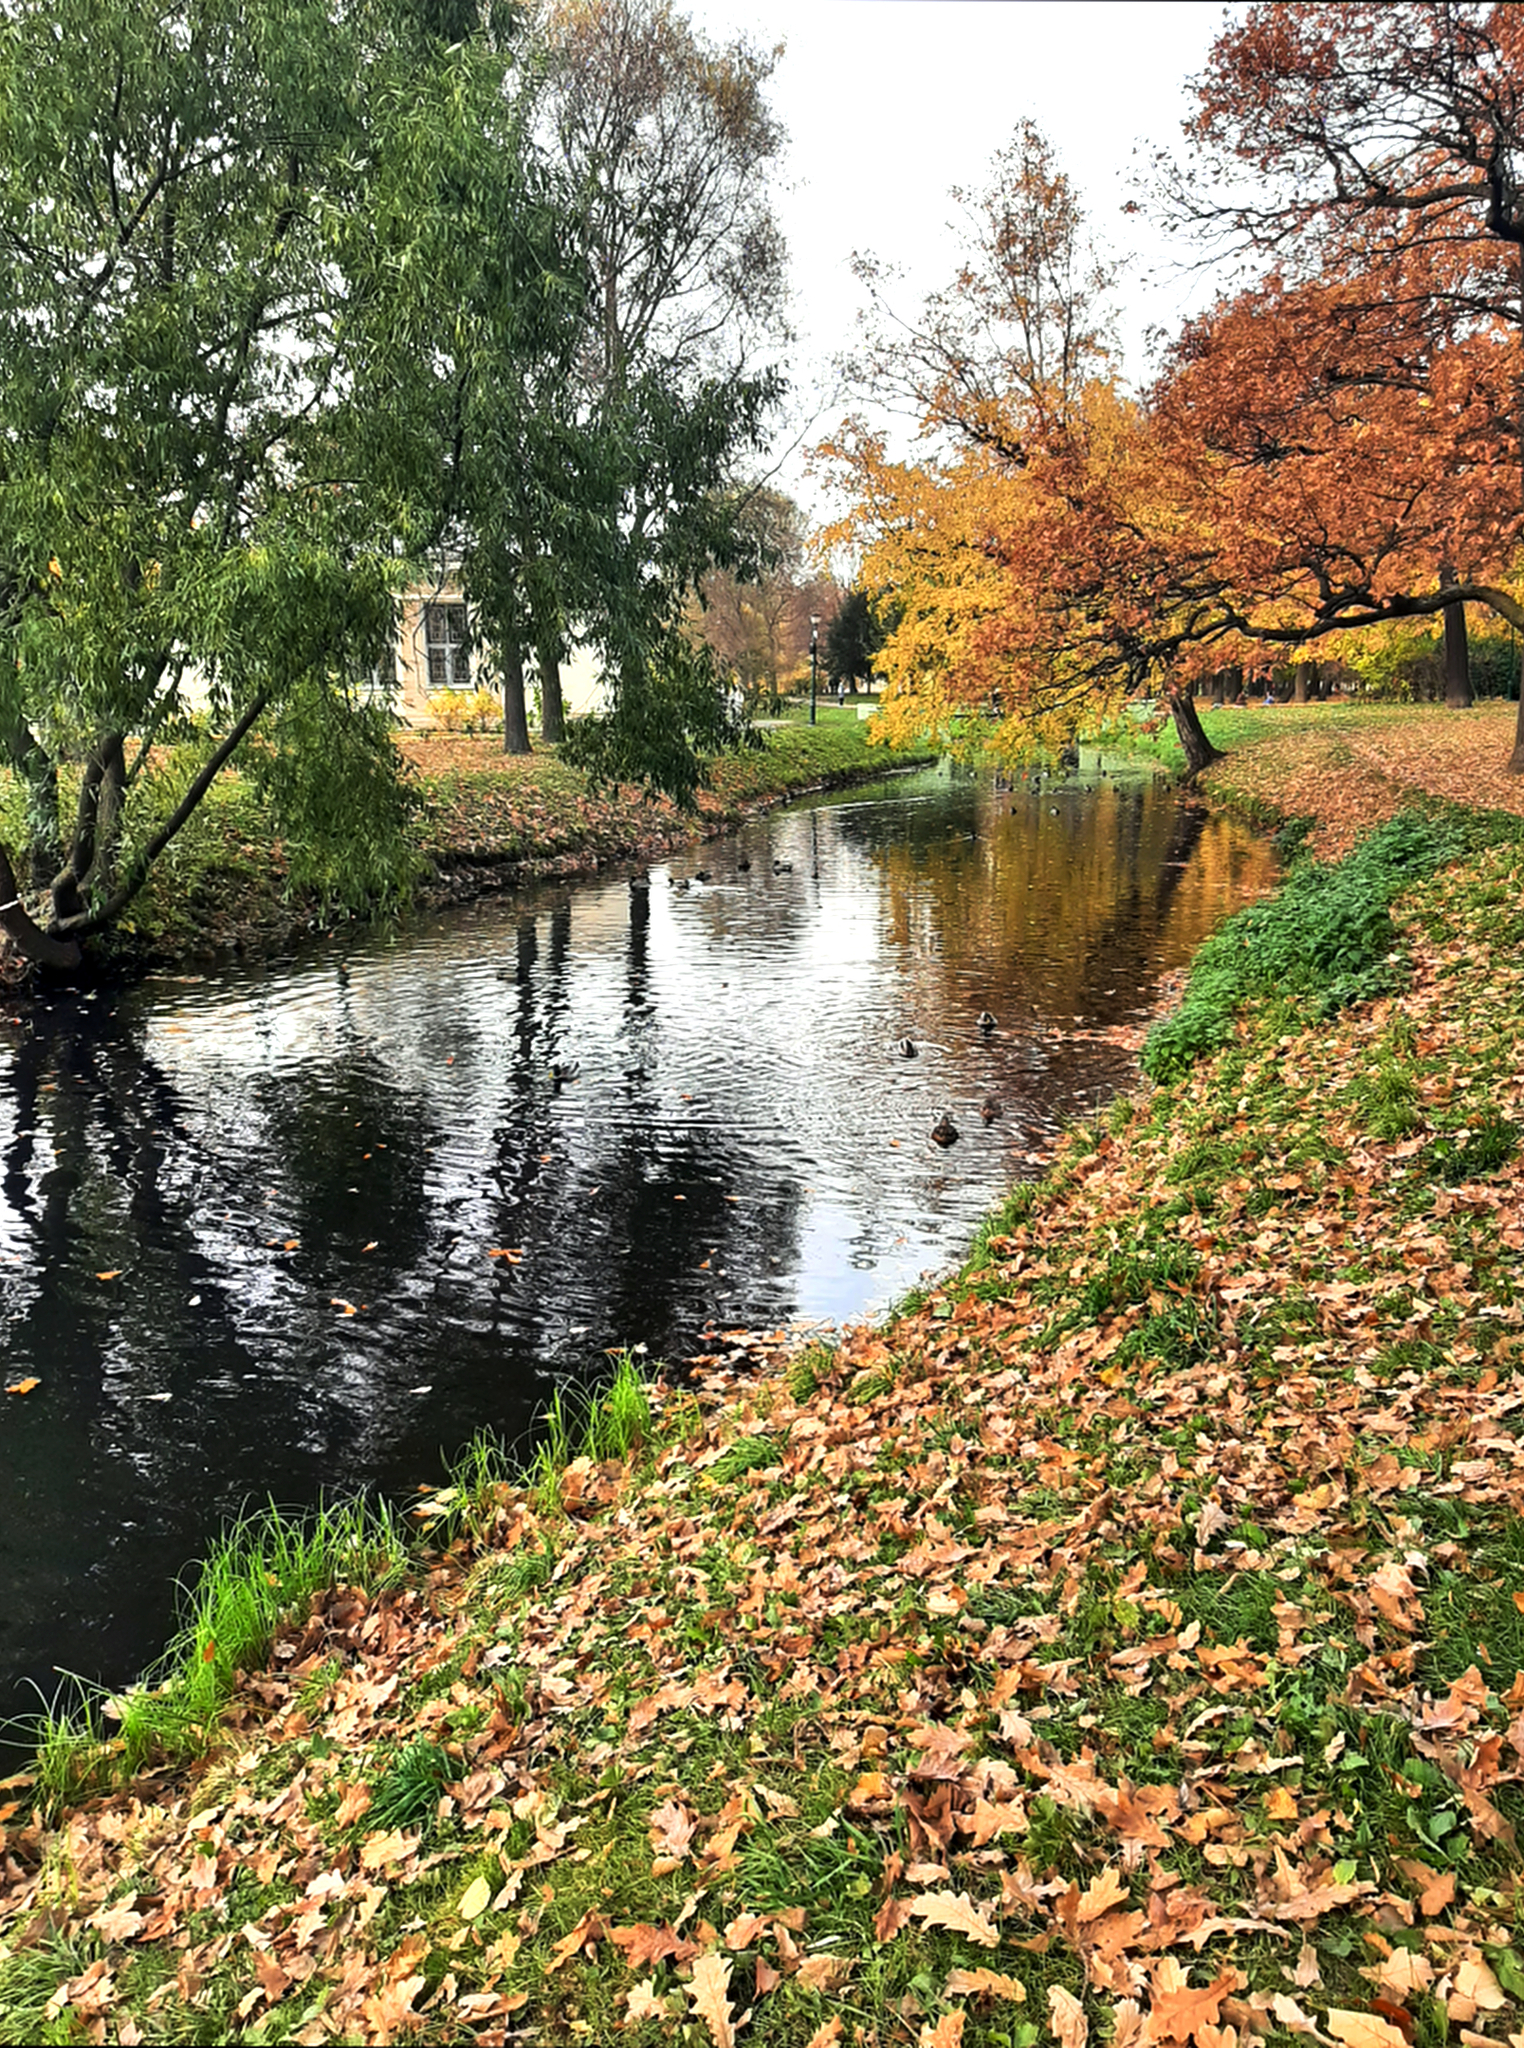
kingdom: Animalia
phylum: Chordata
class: Aves
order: Anseriformes
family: Anatidae
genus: Anas
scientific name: Anas platyrhynchos
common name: Mallard
